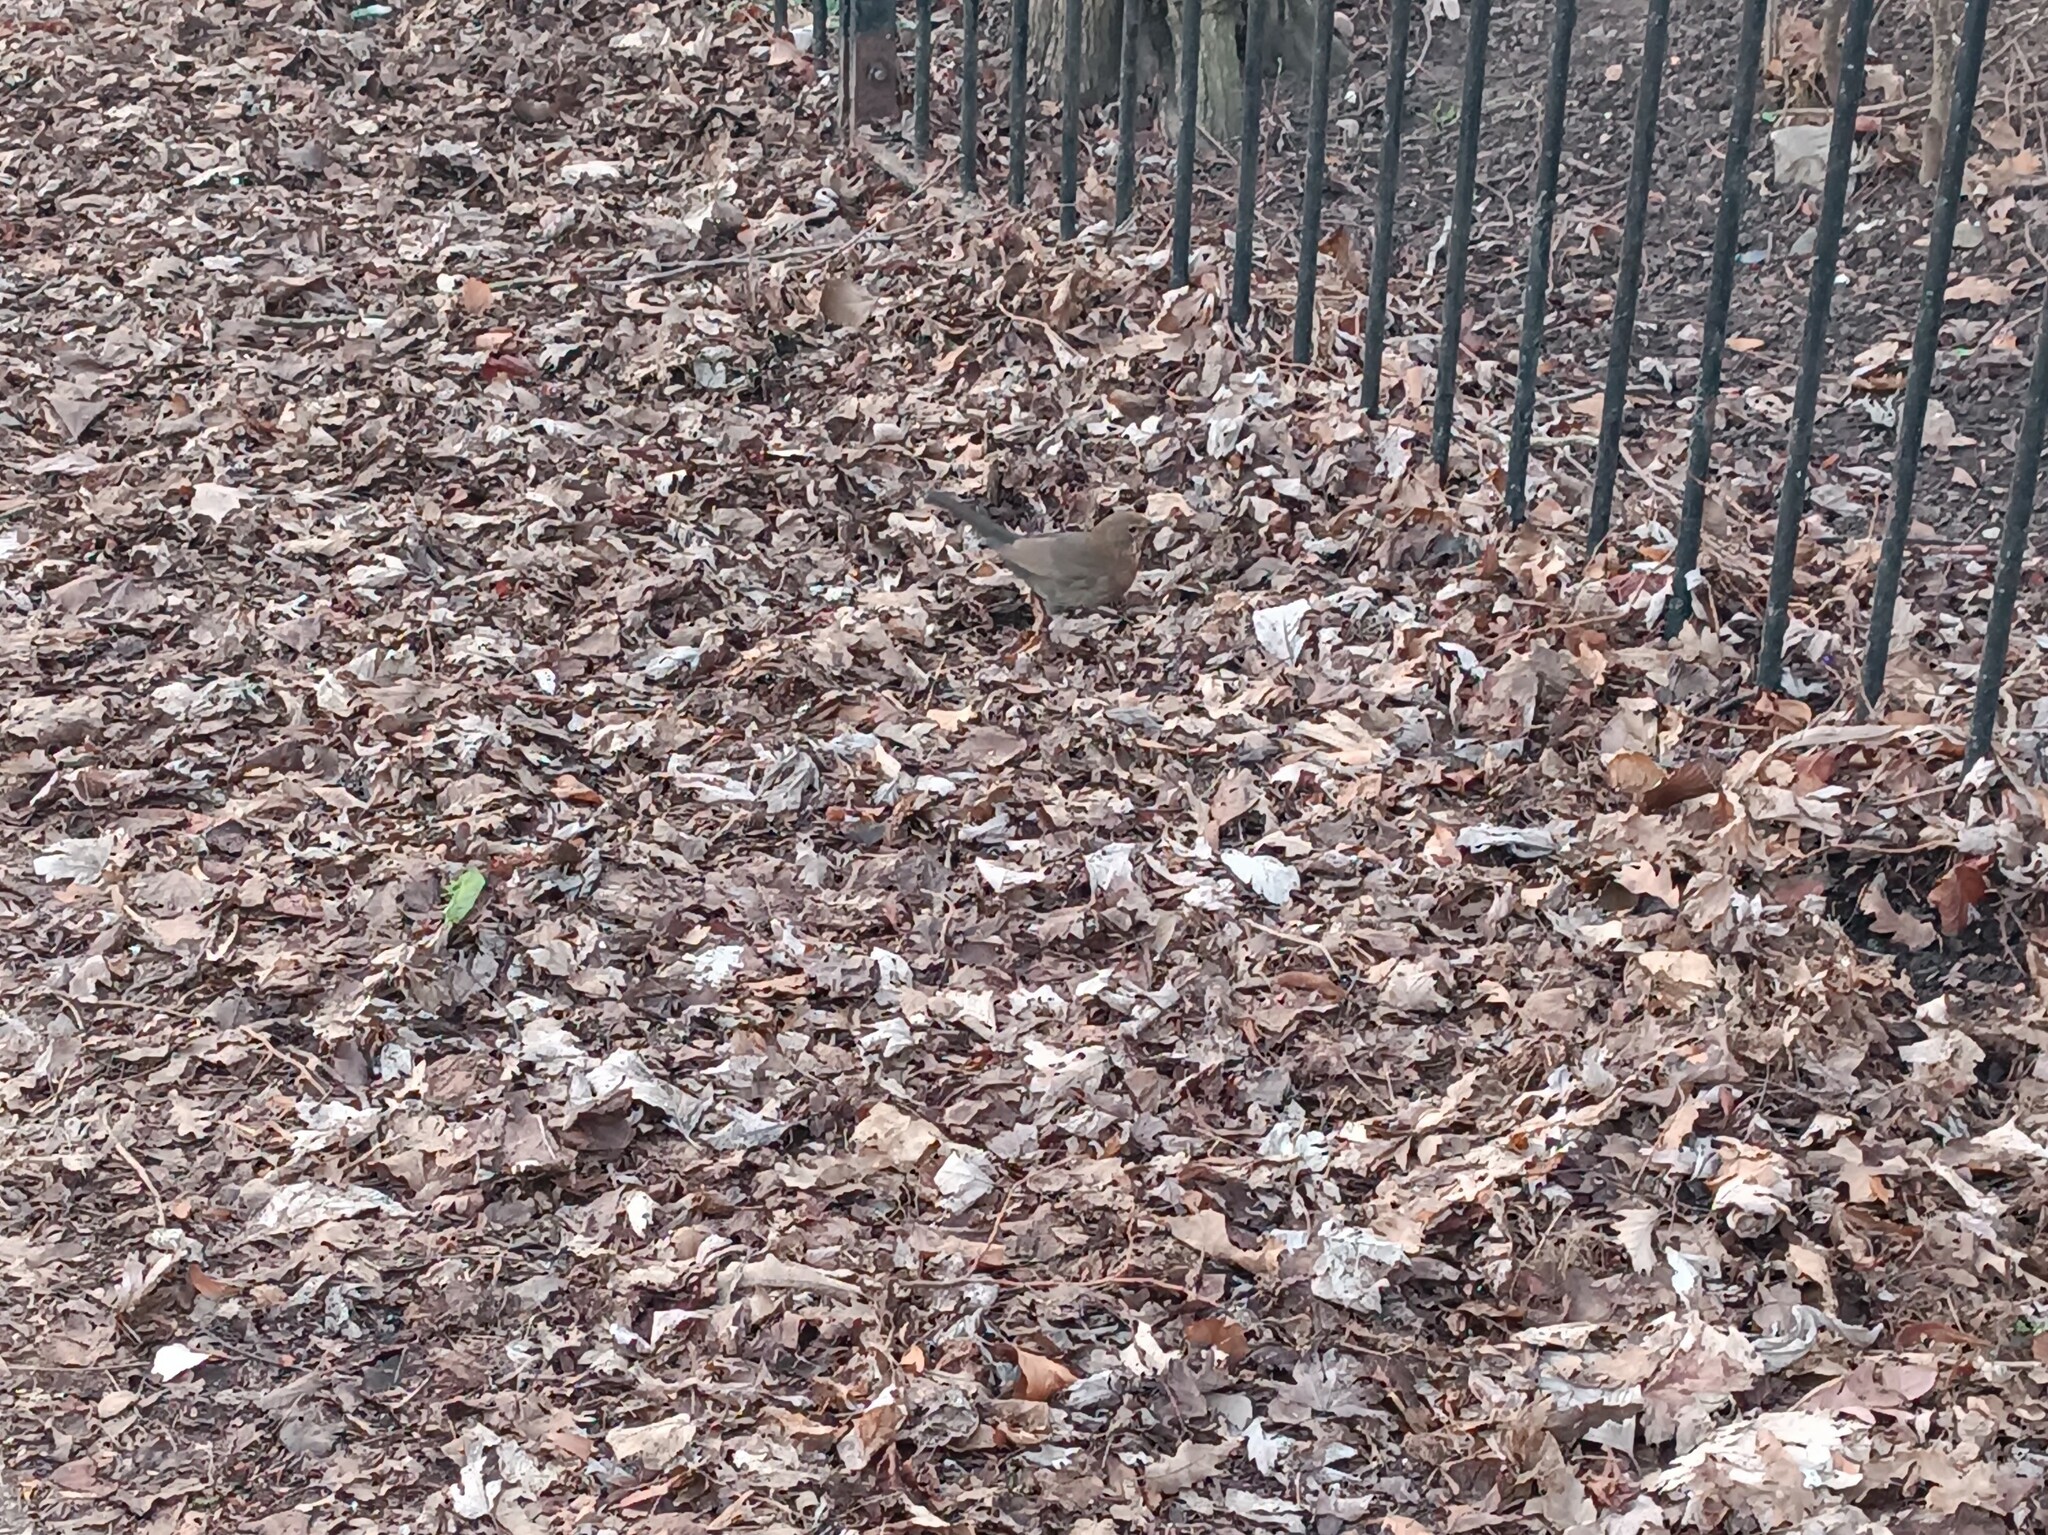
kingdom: Animalia
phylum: Chordata
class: Aves
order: Passeriformes
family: Turdidae
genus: Turdus
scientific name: Turdus merula
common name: Common blackbird
